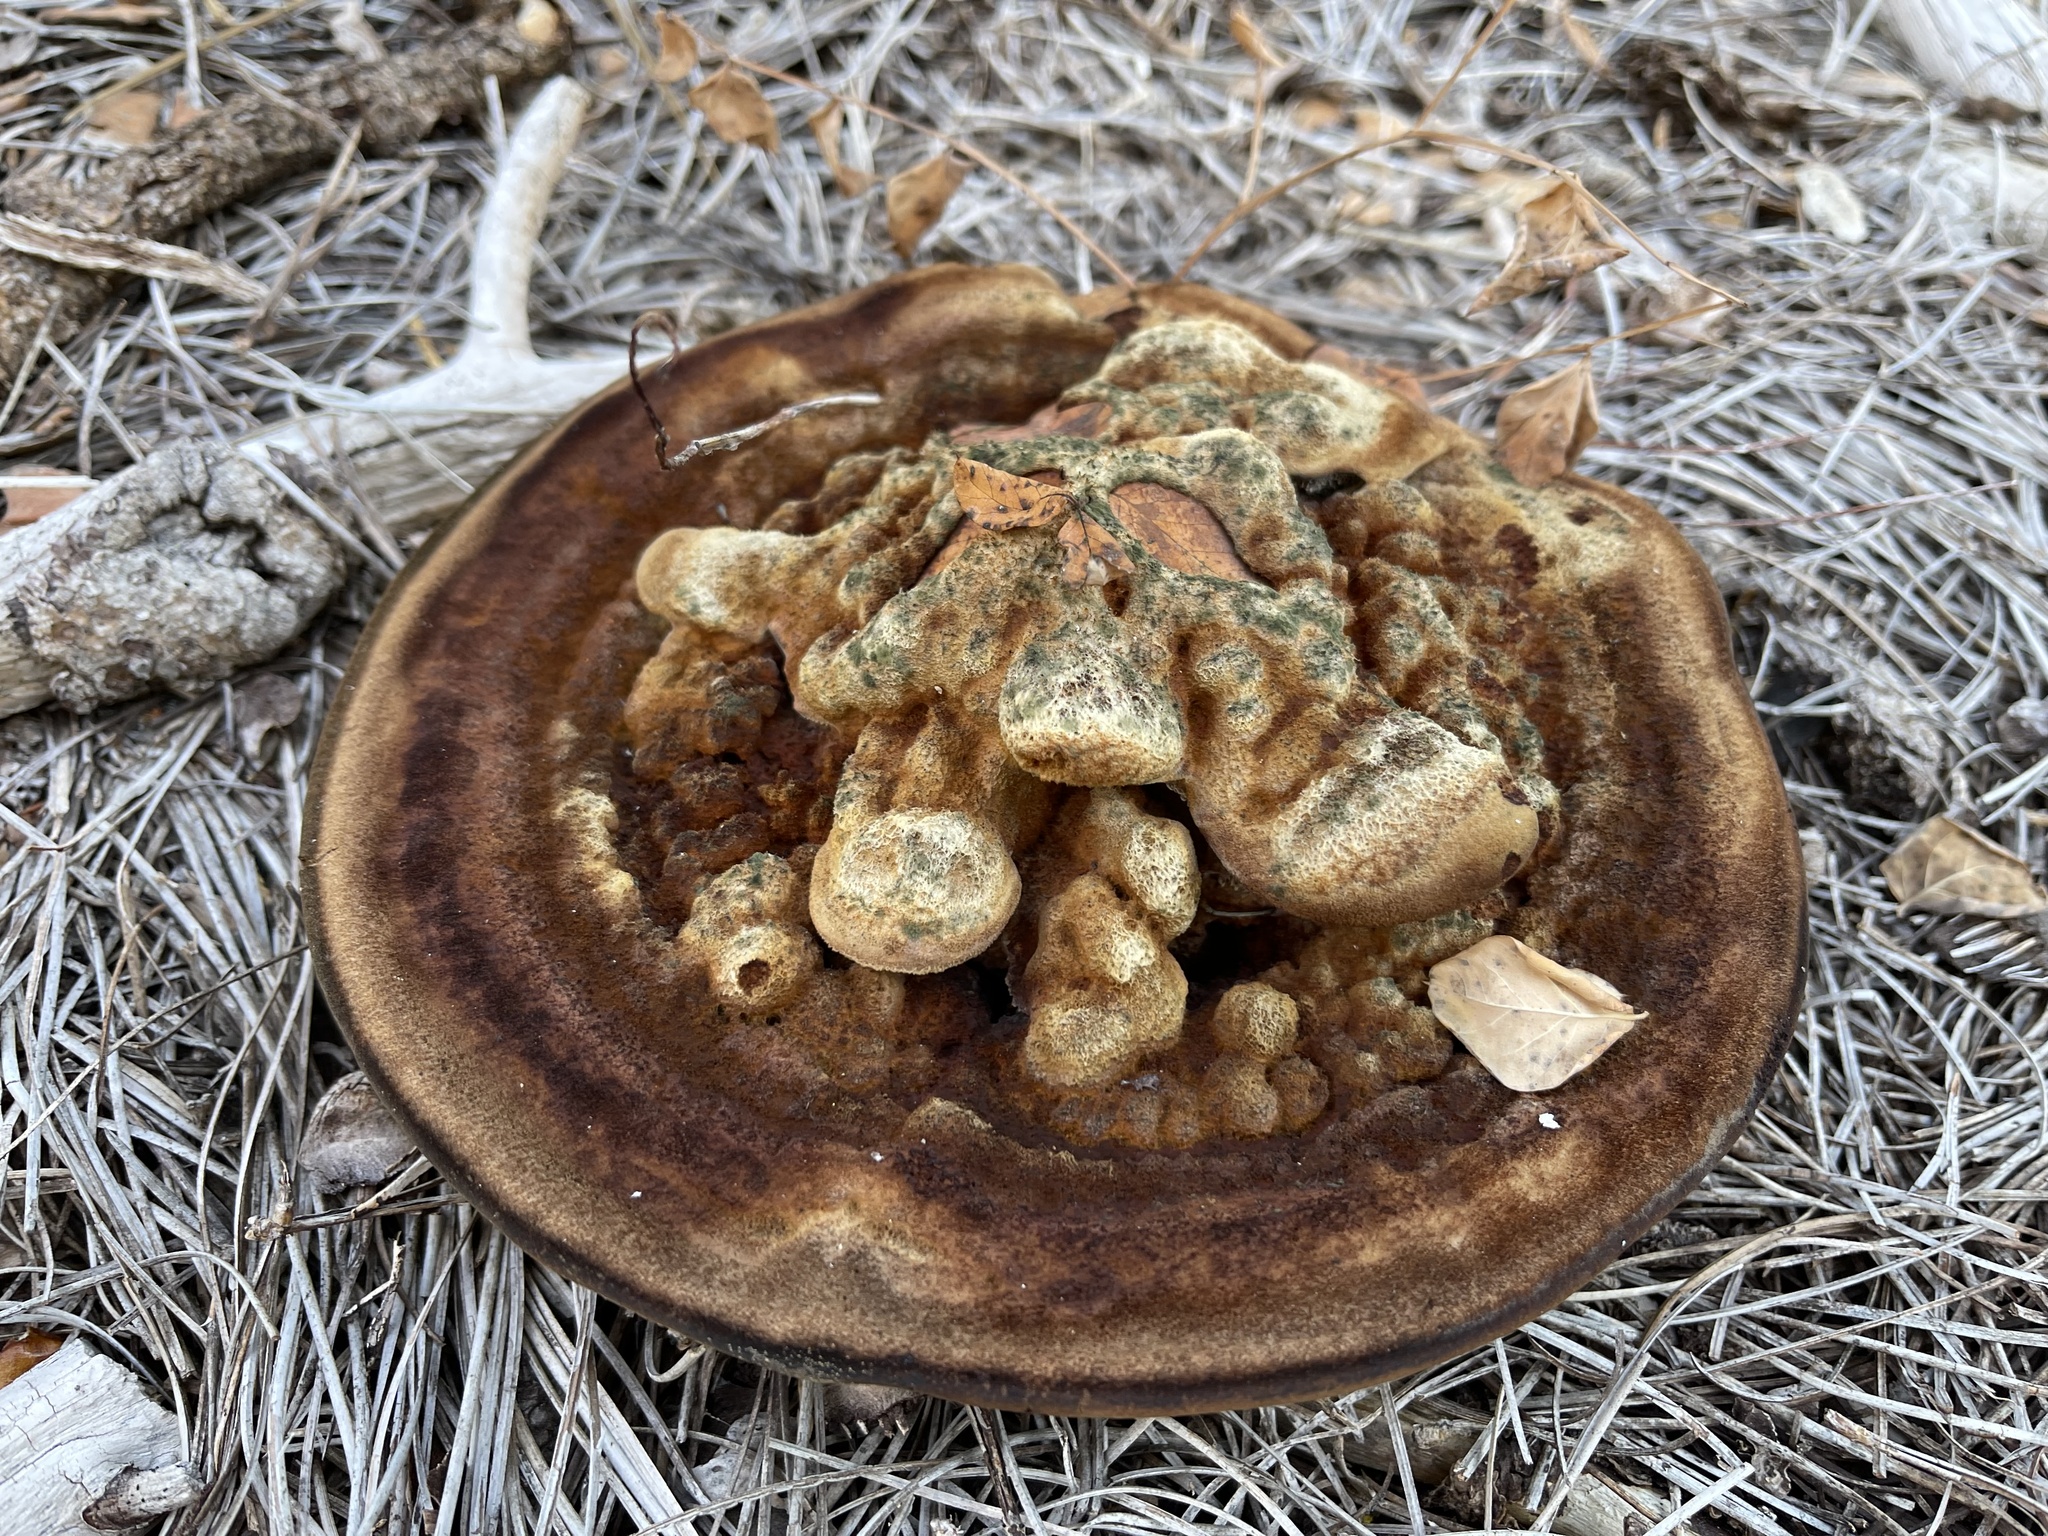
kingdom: Fungi
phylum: Basidiomycota
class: Agaricomycetes
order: Polyporales
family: Laetiporaceae
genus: Phaeolus
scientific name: Phaeolus schweinitzii
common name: Dyer's mazegill
